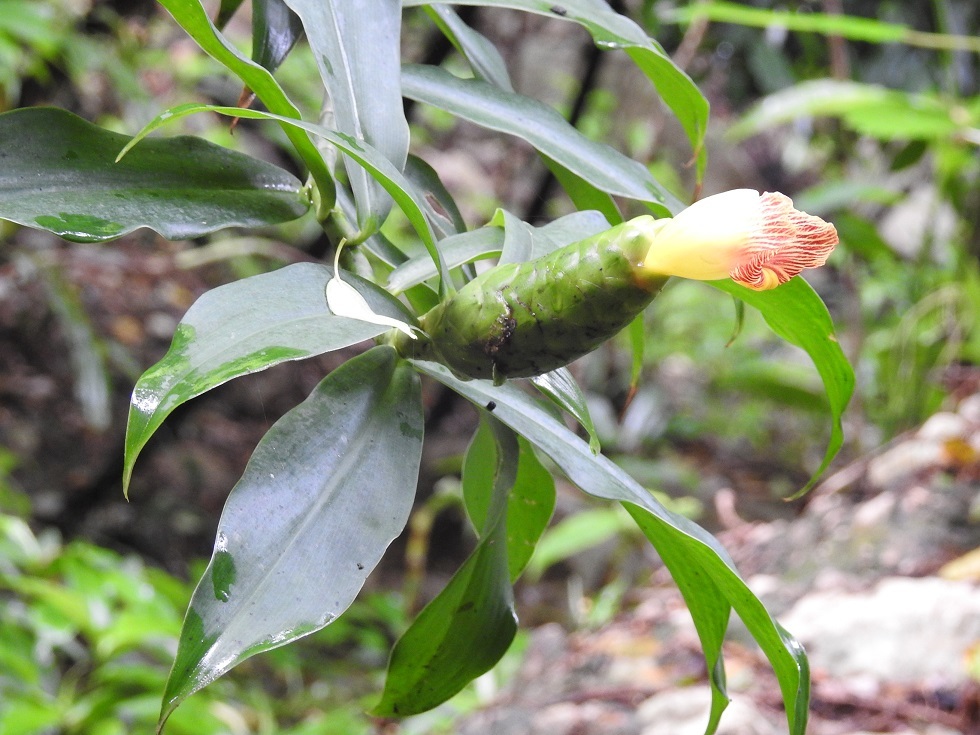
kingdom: Plantae
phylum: Tracheophyta
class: Liliopsida
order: Zingiberales
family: Costaceae
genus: Costus
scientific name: Costus pictus
